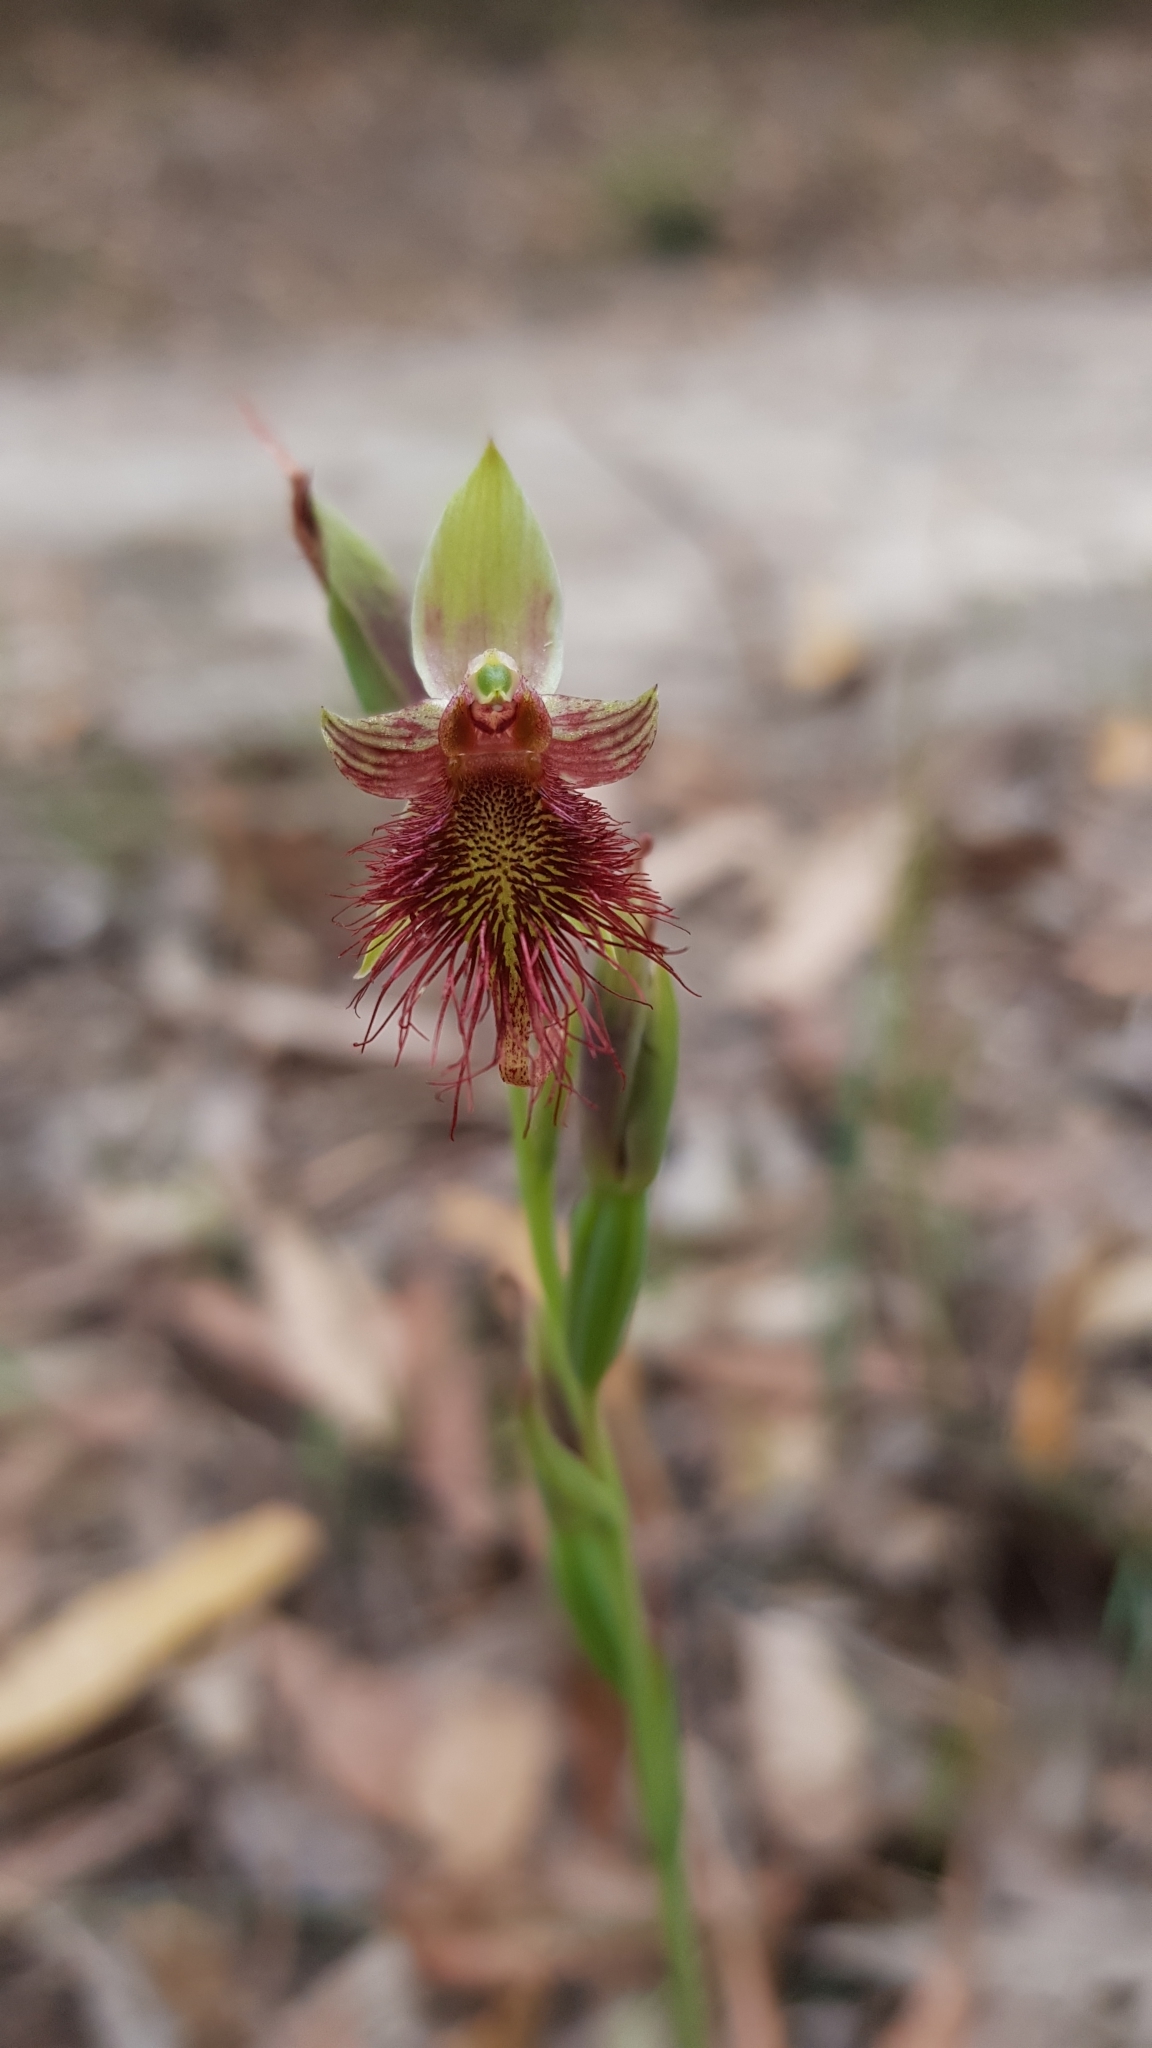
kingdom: Plantae
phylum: Tracheophyta
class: Liliopsida
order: Asparagales
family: Orchidaceae
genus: Calochilus
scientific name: Calochilus paludosus
